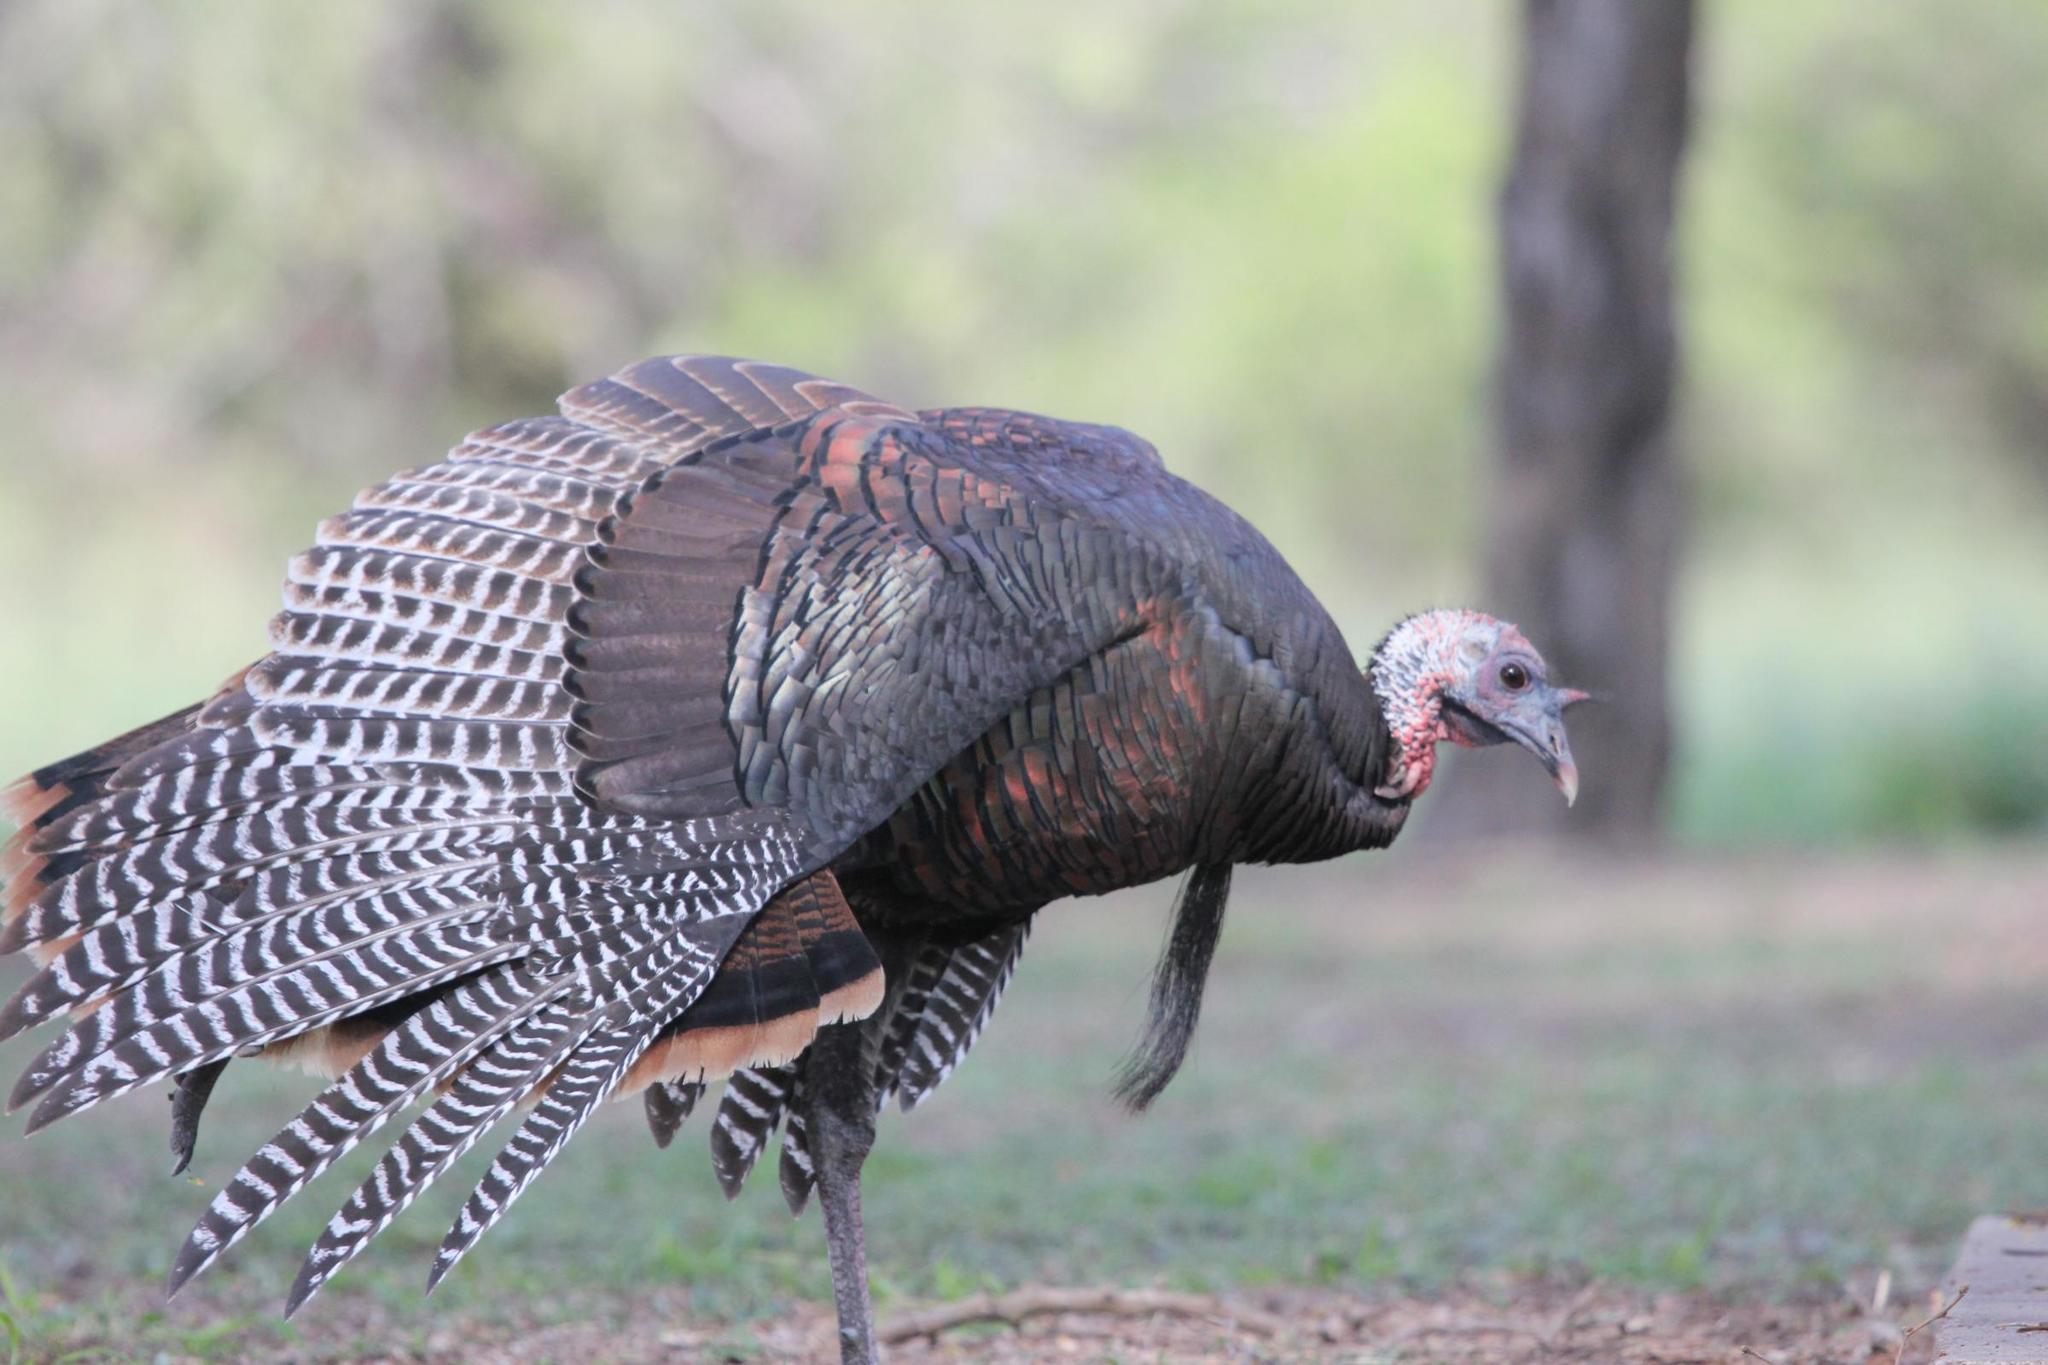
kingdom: Animalia
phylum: Chordata
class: Aves
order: Galliformes
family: Phasianidae
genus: Meleagris
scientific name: Meleagris gallopavo
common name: Wild turkey
